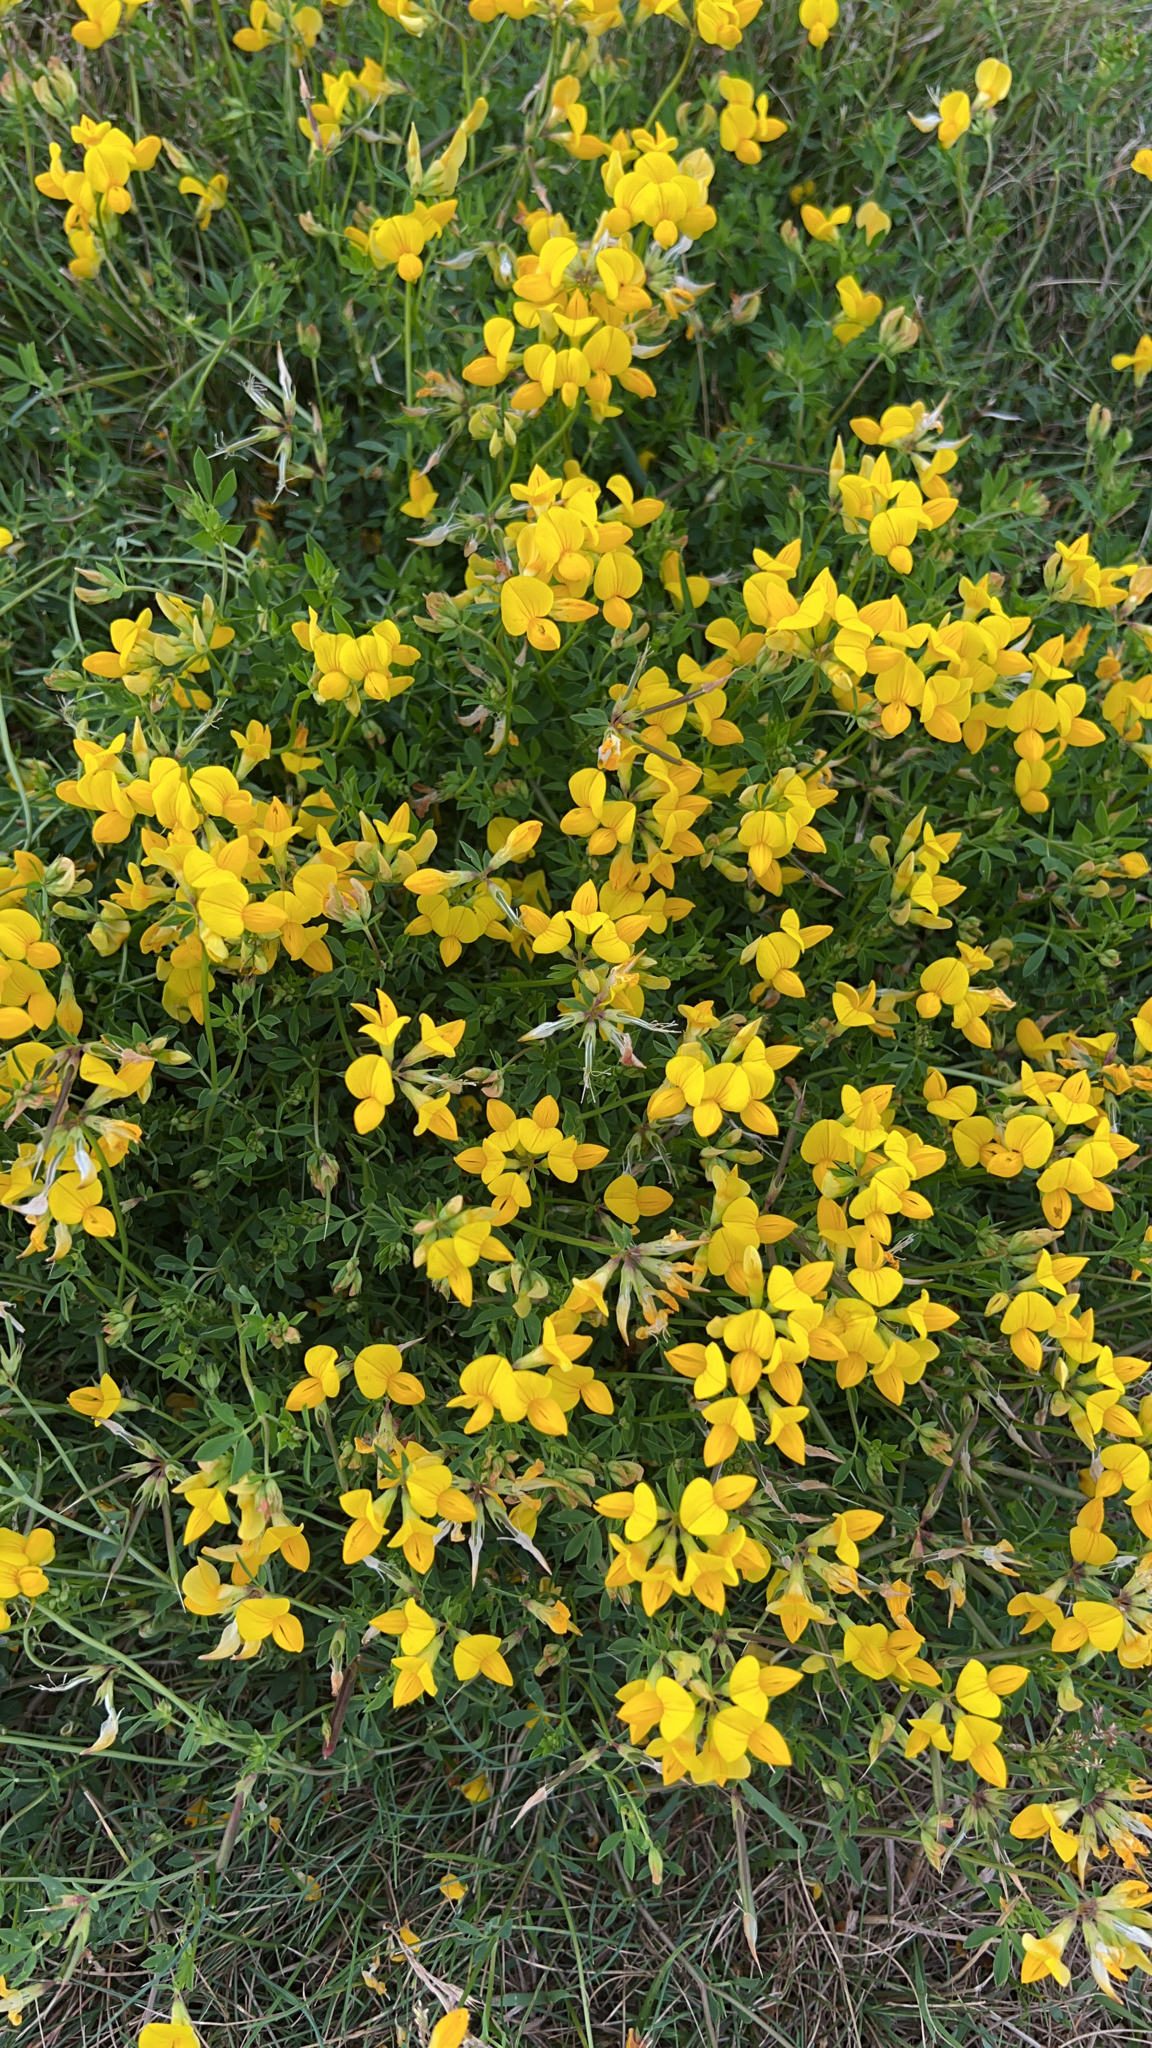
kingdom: Plantae
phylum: Tracheophyta
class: Magnoliopsida
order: Fabales
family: Fabaceae
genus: Lotus
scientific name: Lotus corniculatus
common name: Common bird's-foot-trefoil
